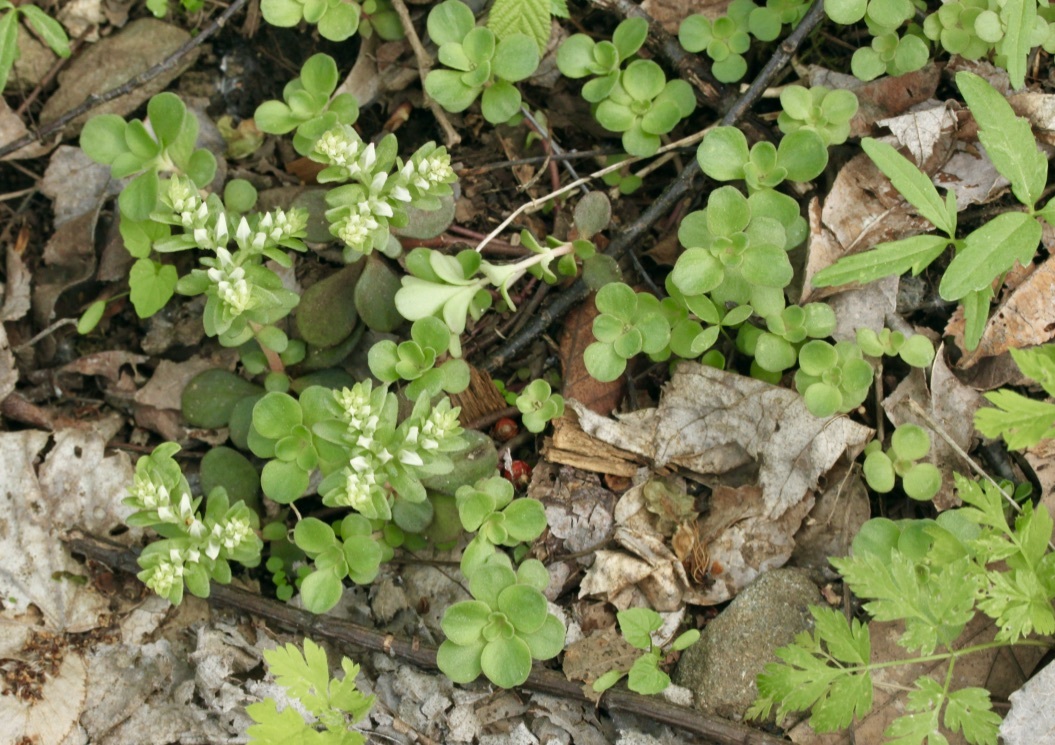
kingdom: Plantae
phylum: Tracheophyta
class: Magnoliopsida
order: Saxifragales
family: Crassulaceae
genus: Sedum
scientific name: Sedum ternatum
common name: Wild stonecrop
